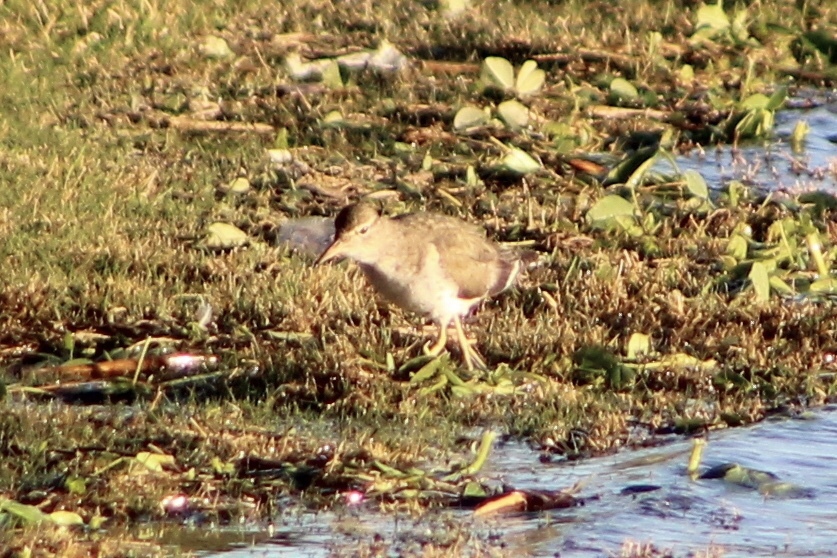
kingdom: Animalia
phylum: Chordata
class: Aves
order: Charadriiformes
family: Scolopacidae
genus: Actitis
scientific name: Actitis macularius
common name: Spotted sandpiper
